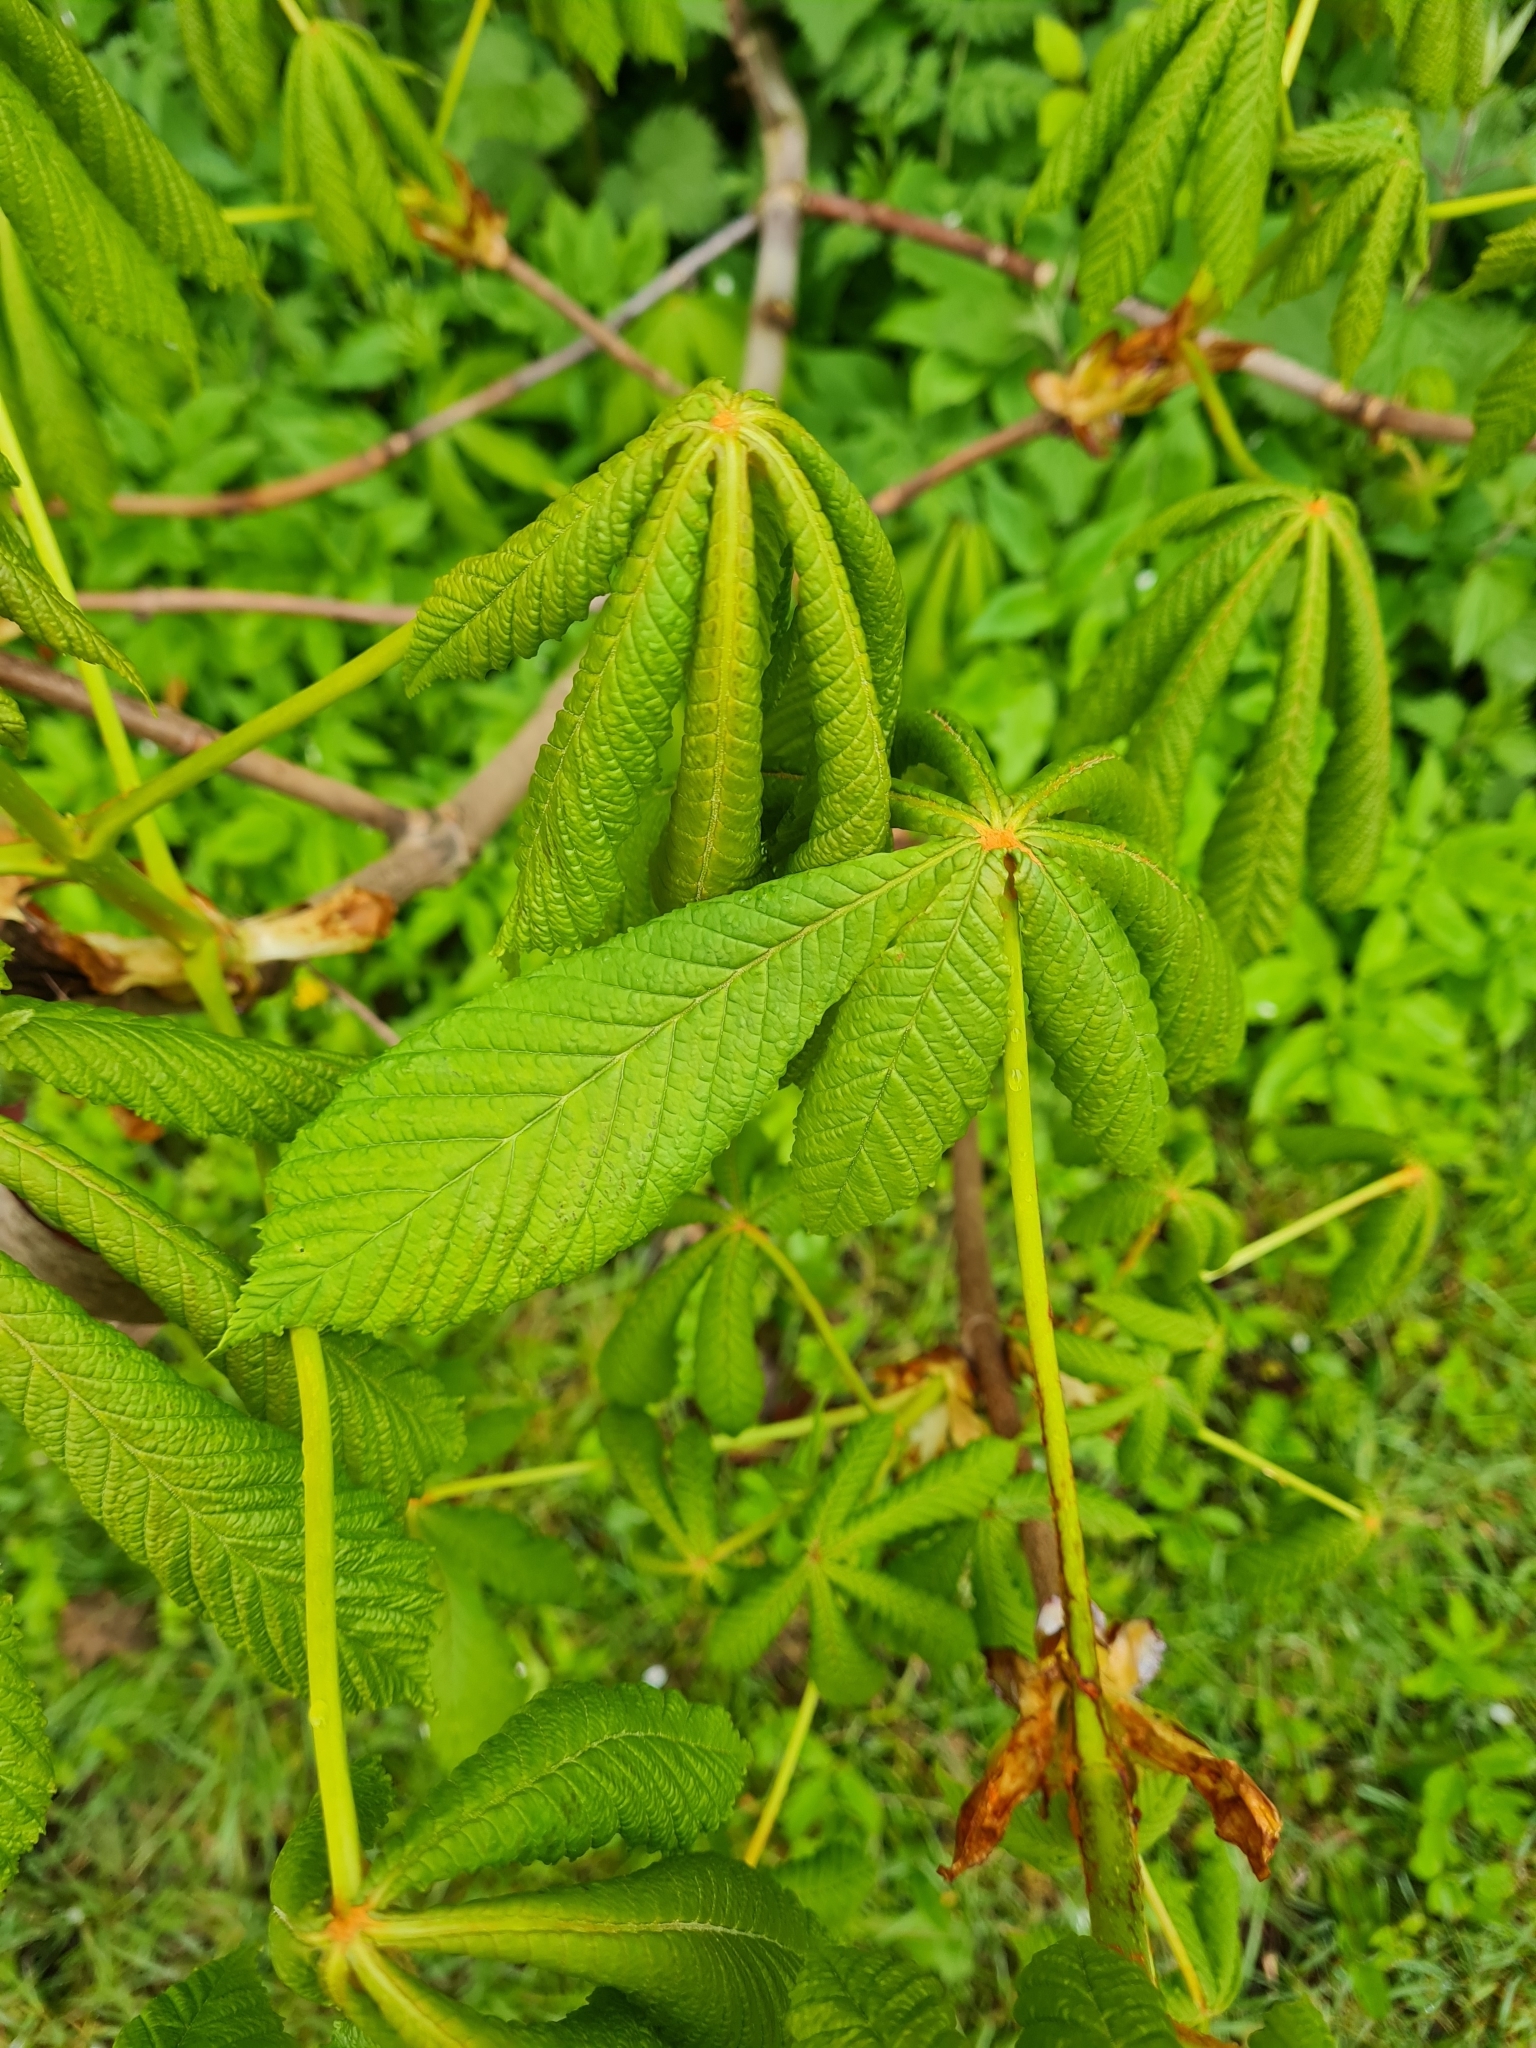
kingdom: Plantae
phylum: Tracheophyta
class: Magnoliopsida
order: Sapindales
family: Sapindaceae
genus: Aesculus
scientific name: Aesculus hippocastanum
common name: Horse-chestnut
